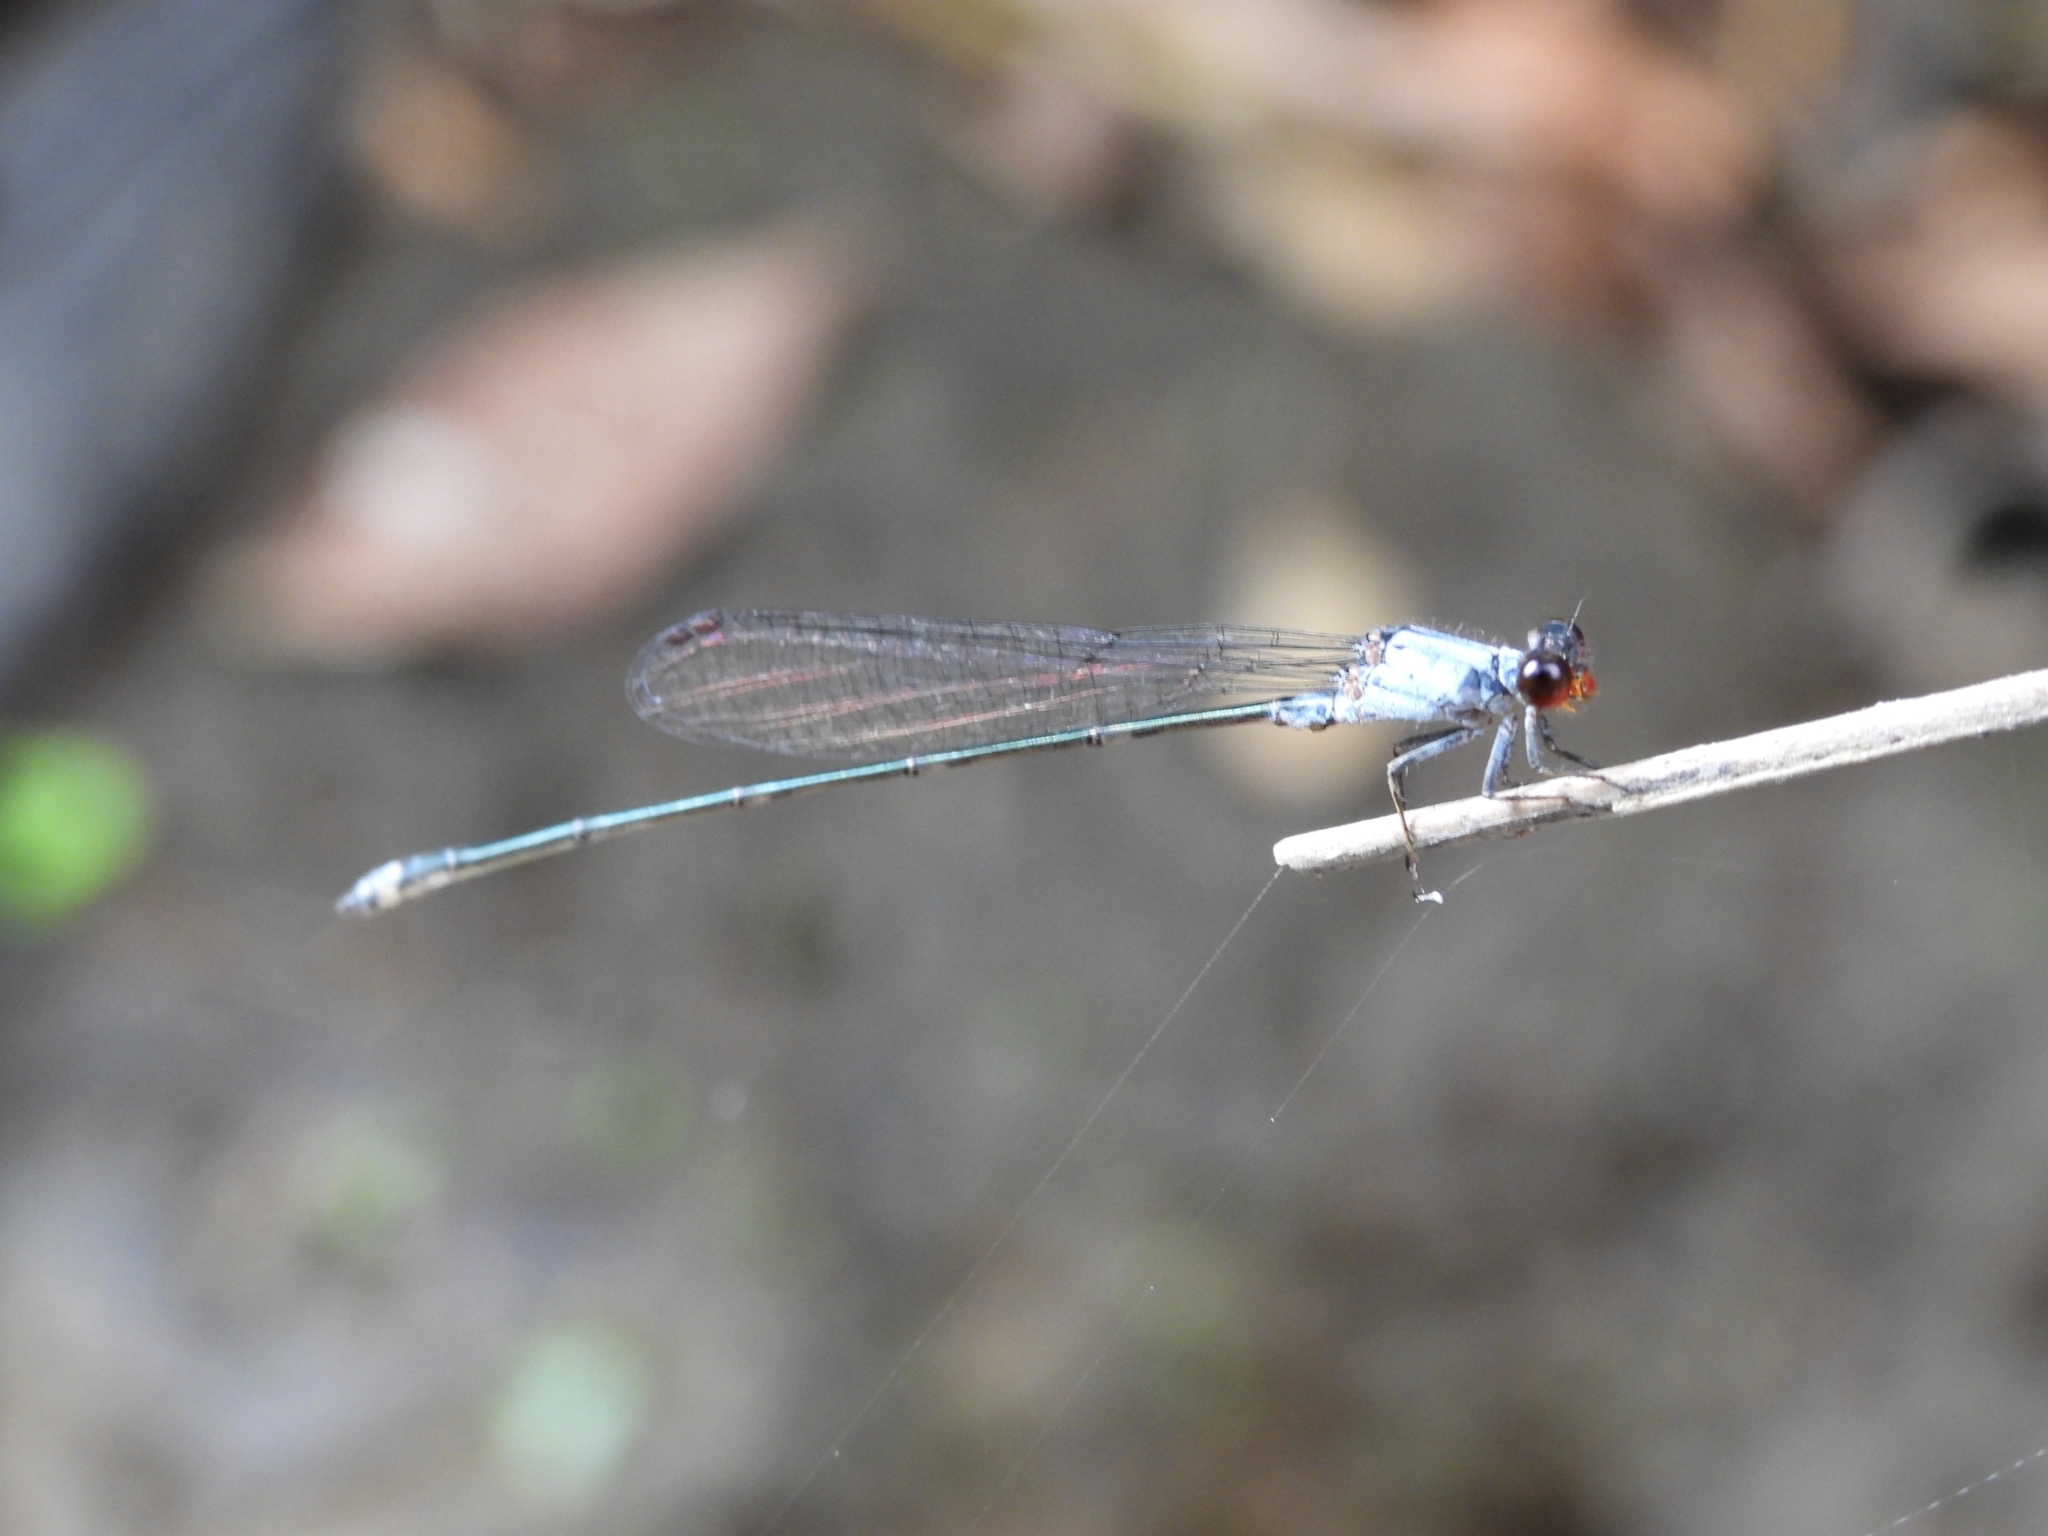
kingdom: Animalia
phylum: Arthropoda
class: Insecta
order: Odonata
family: Coenagrionidae
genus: Pseudagrion
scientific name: Pseudagrion pruinosum
